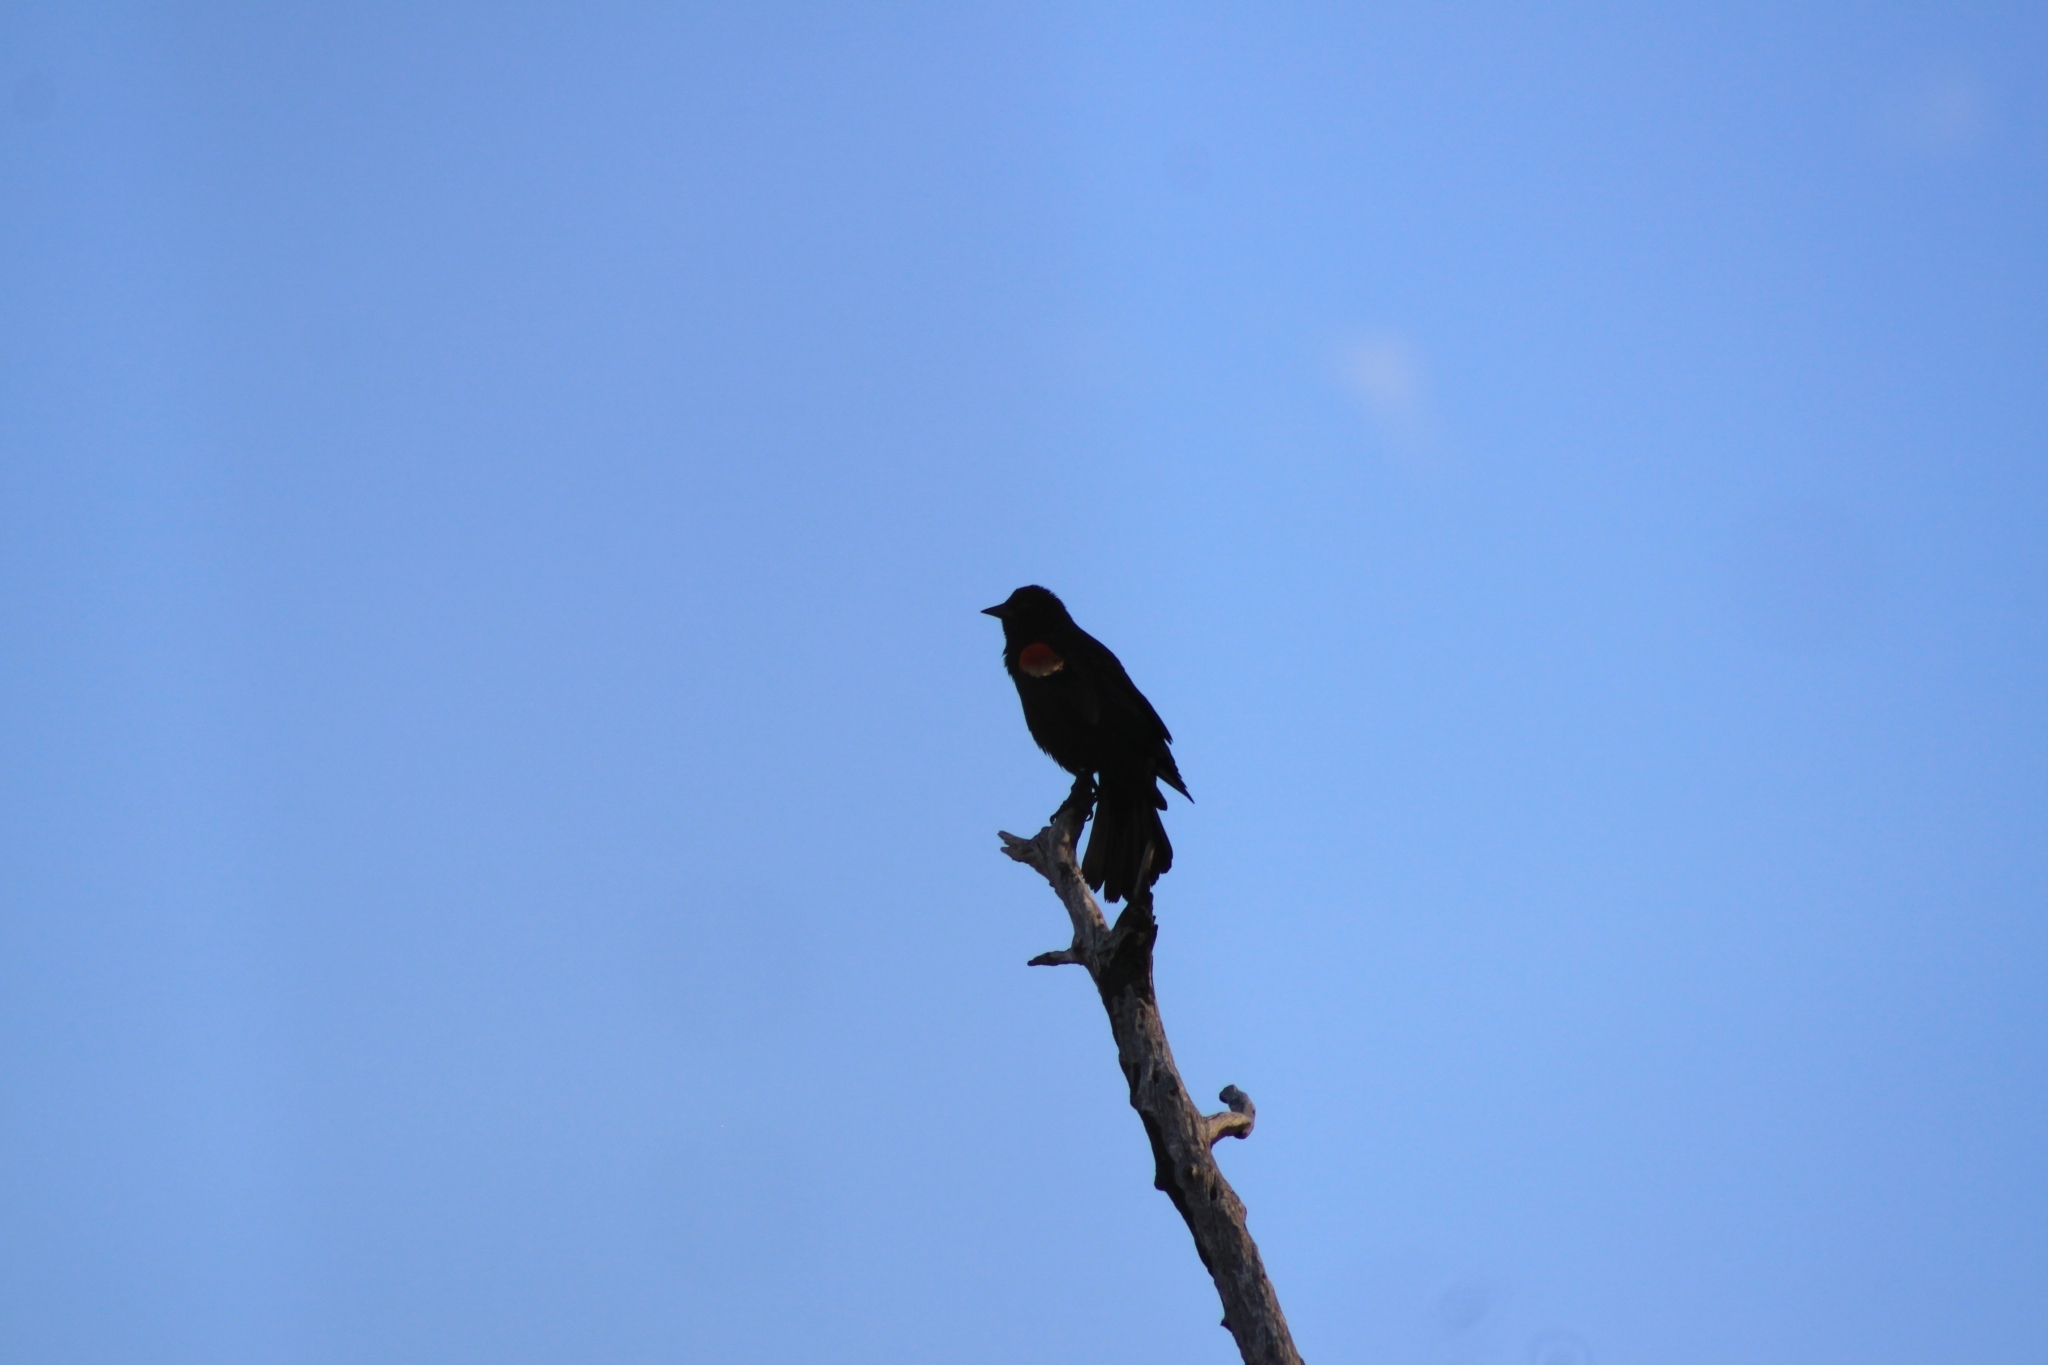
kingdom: Animalia
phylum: Chordata
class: Aves
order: Passeriformes
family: Icteridae
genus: Agelaius
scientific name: Agelaius phoeniceus
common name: Red-winged blackbird
